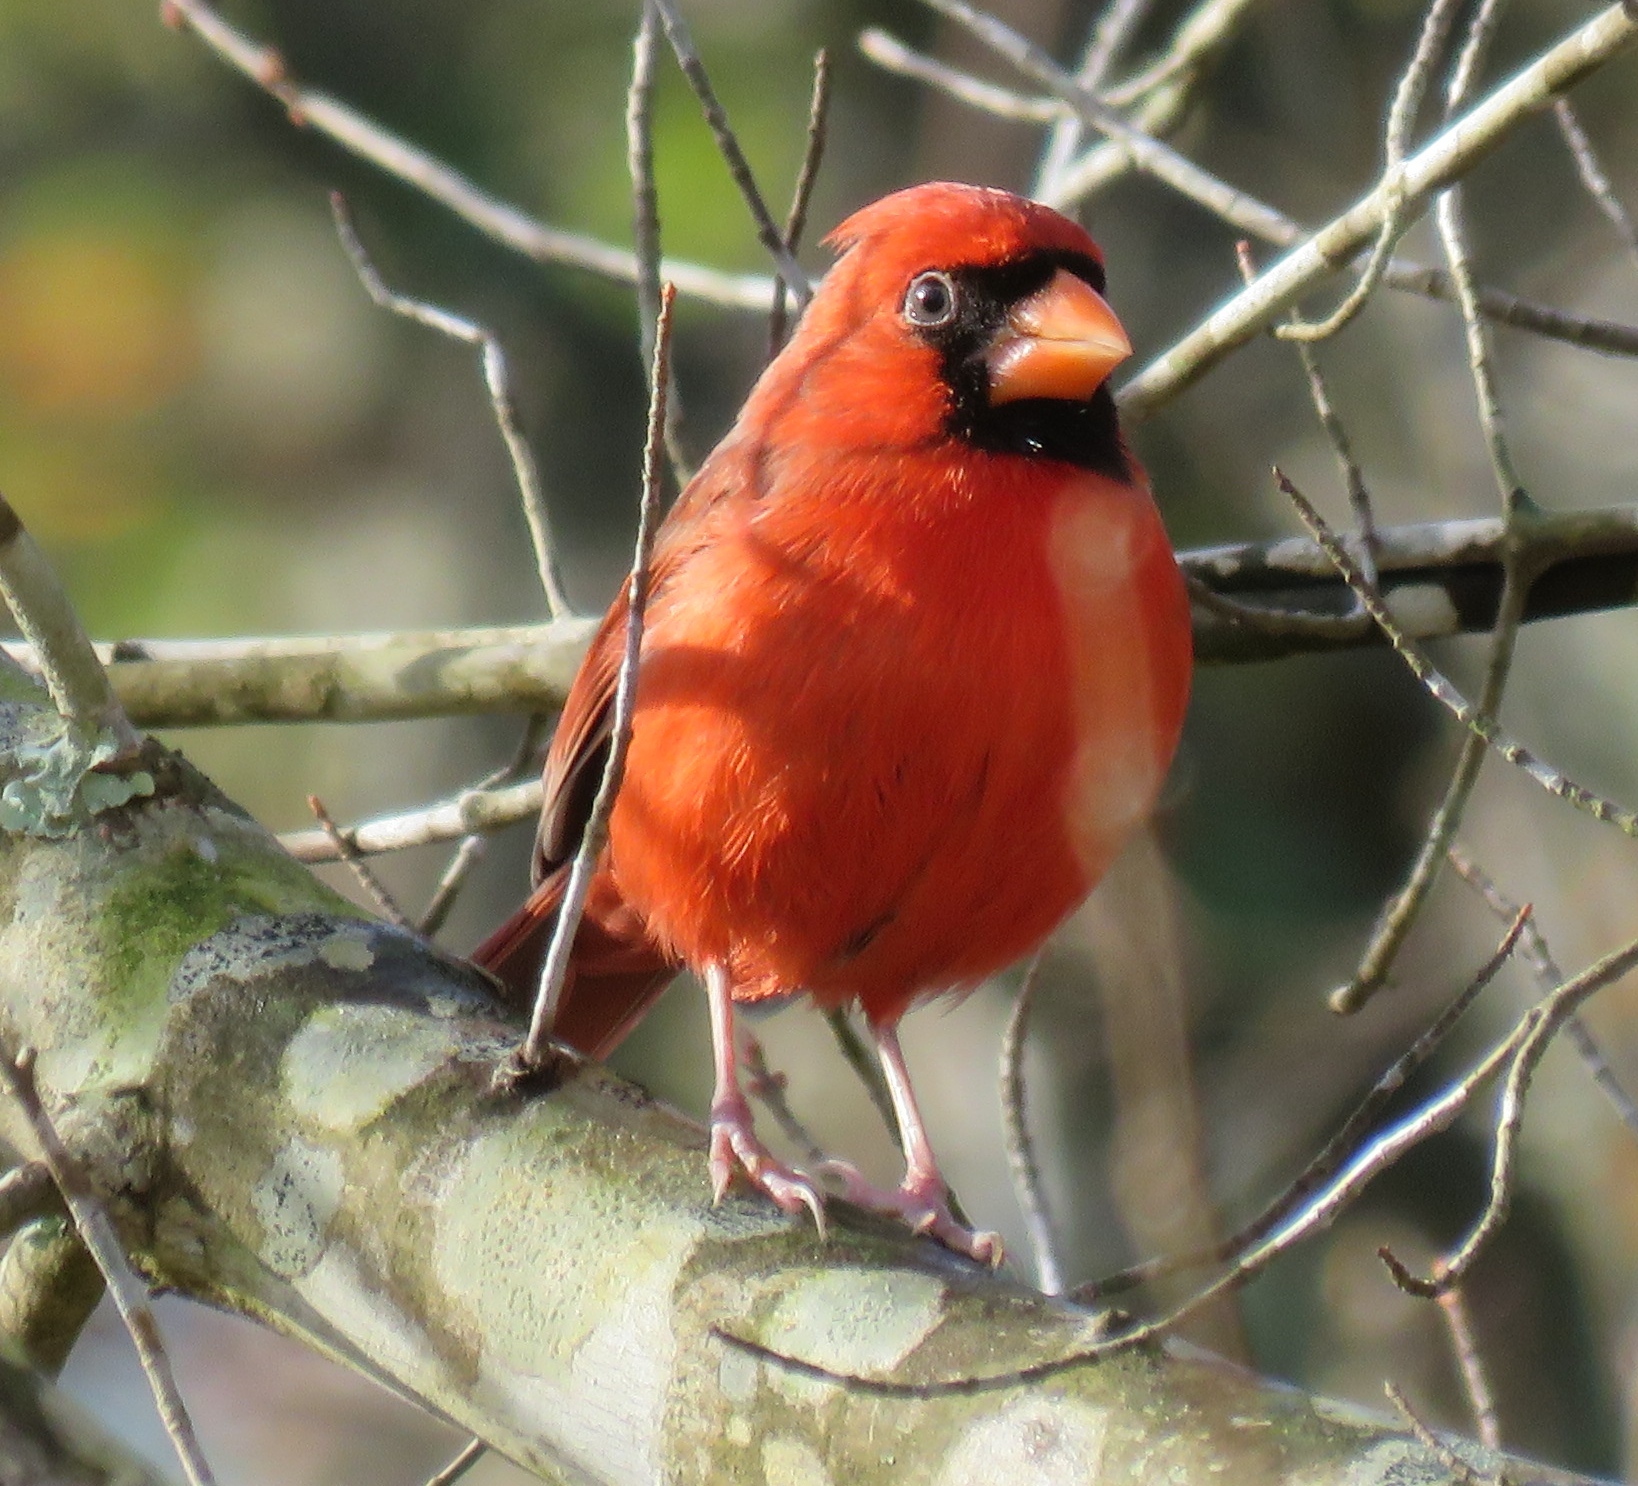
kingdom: Animalia
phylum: Chordata
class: Aves
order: Passeriformes
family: Cardinalidae
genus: Cardinalis
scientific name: Cardinalis cardinalis
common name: Northern cardinal
